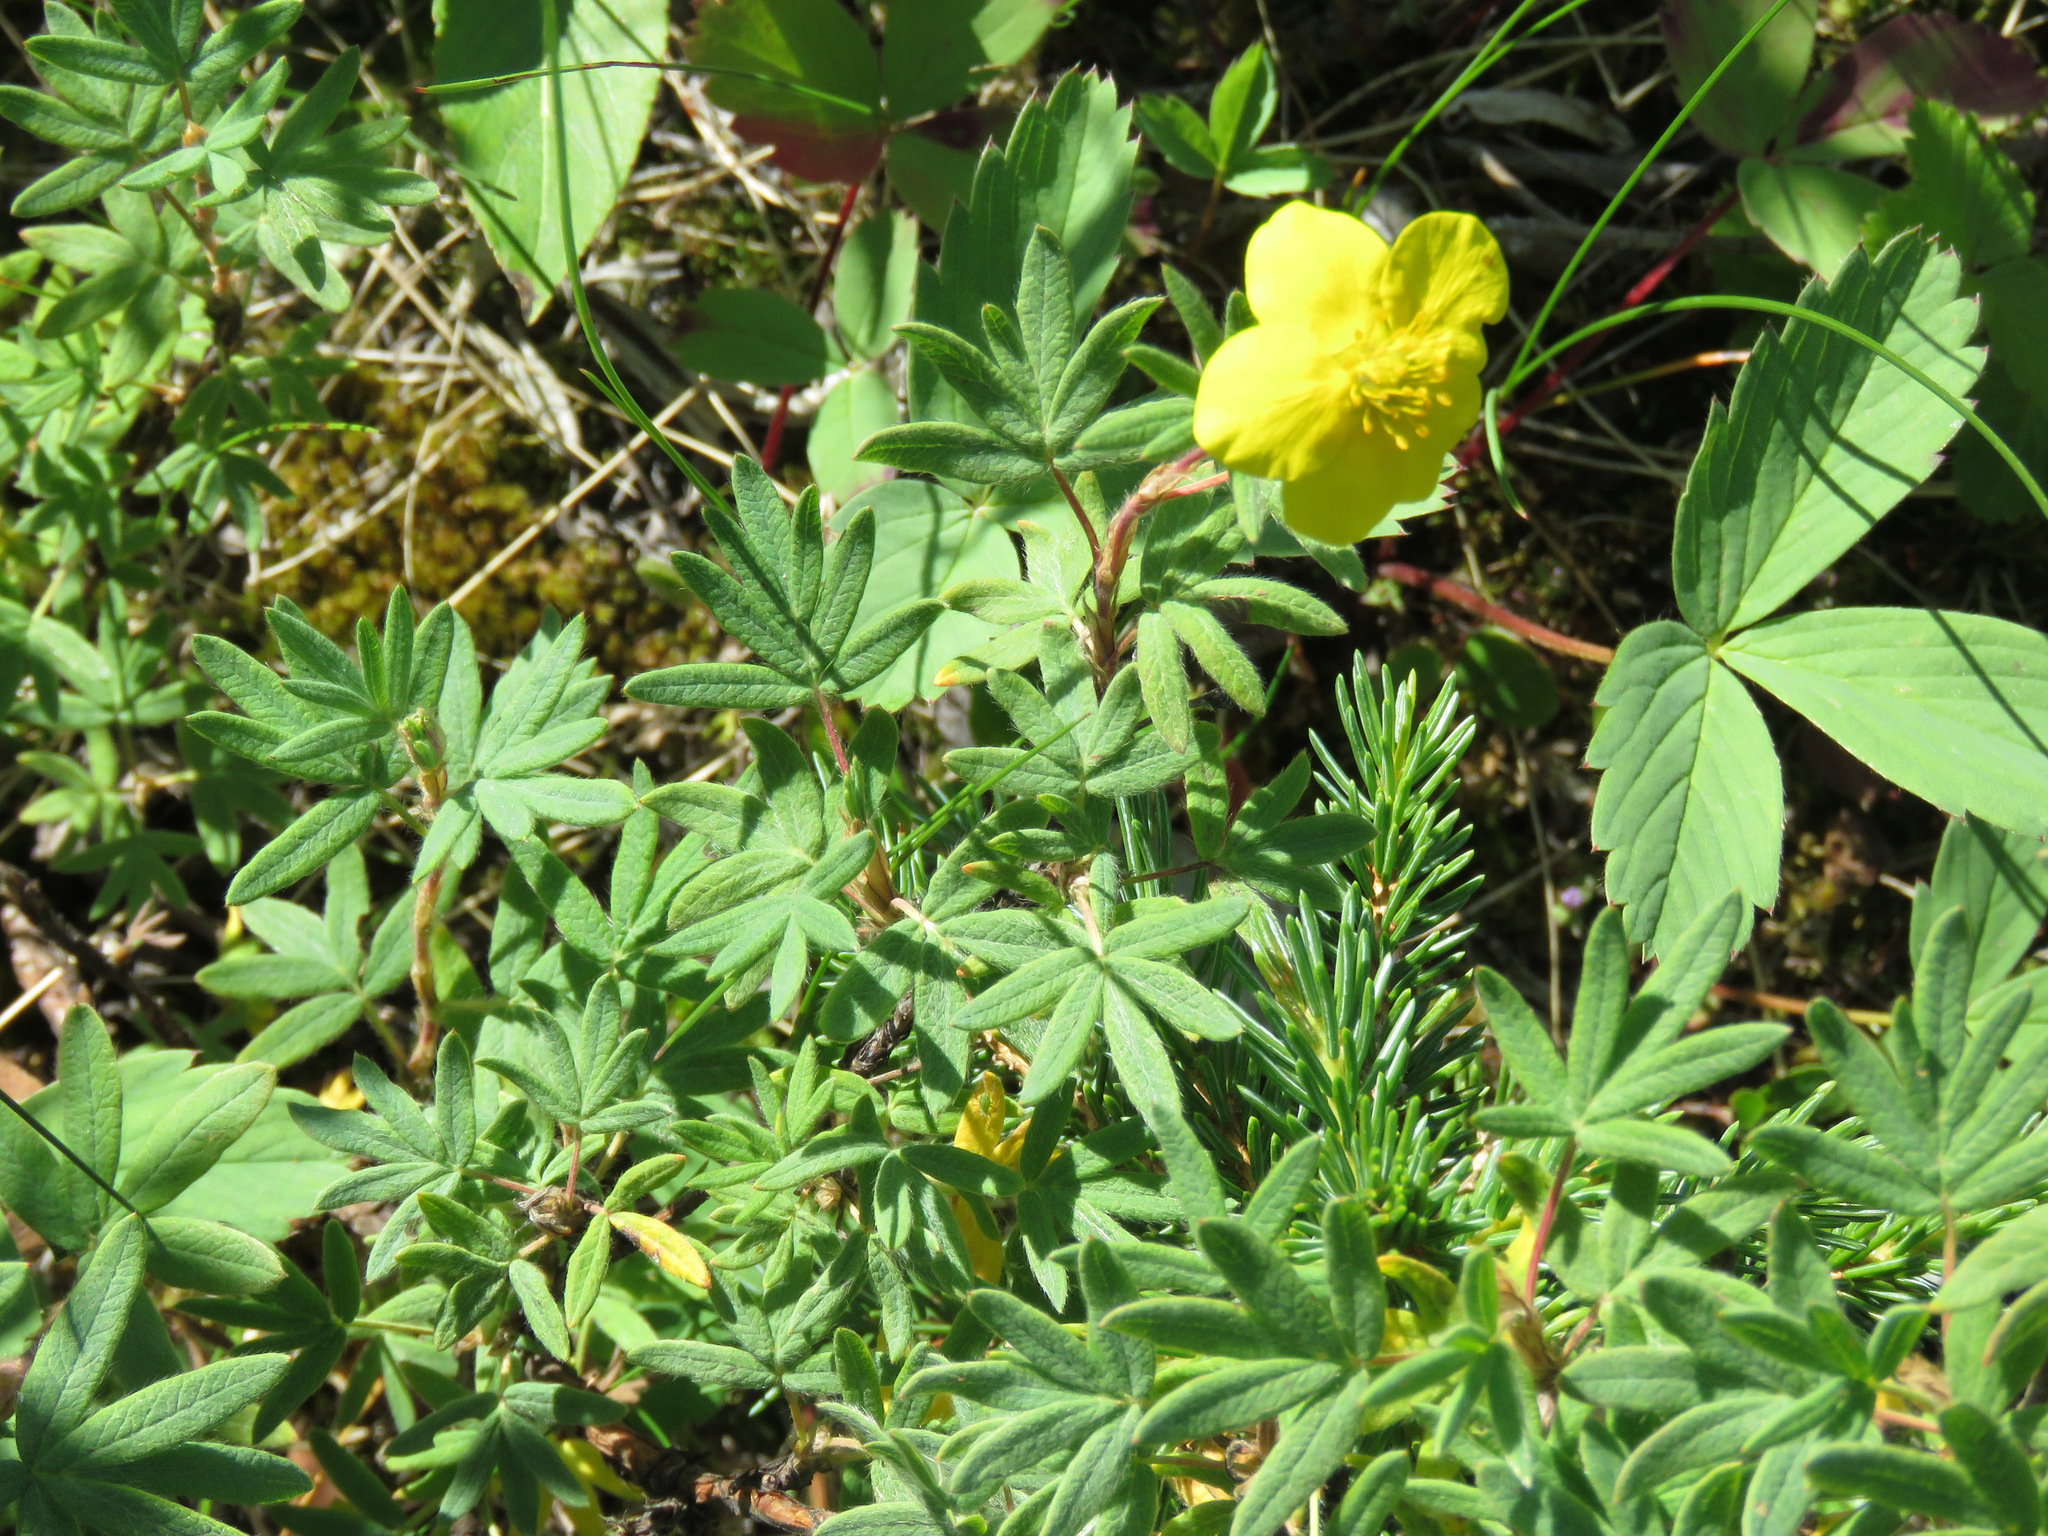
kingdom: Plantae
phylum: Tracheophyta
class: Magnoliopsida
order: Rosales
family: Rosaceae
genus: Dasiphora
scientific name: Dasiphora fruticosa
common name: Shrubby cinquefoil
